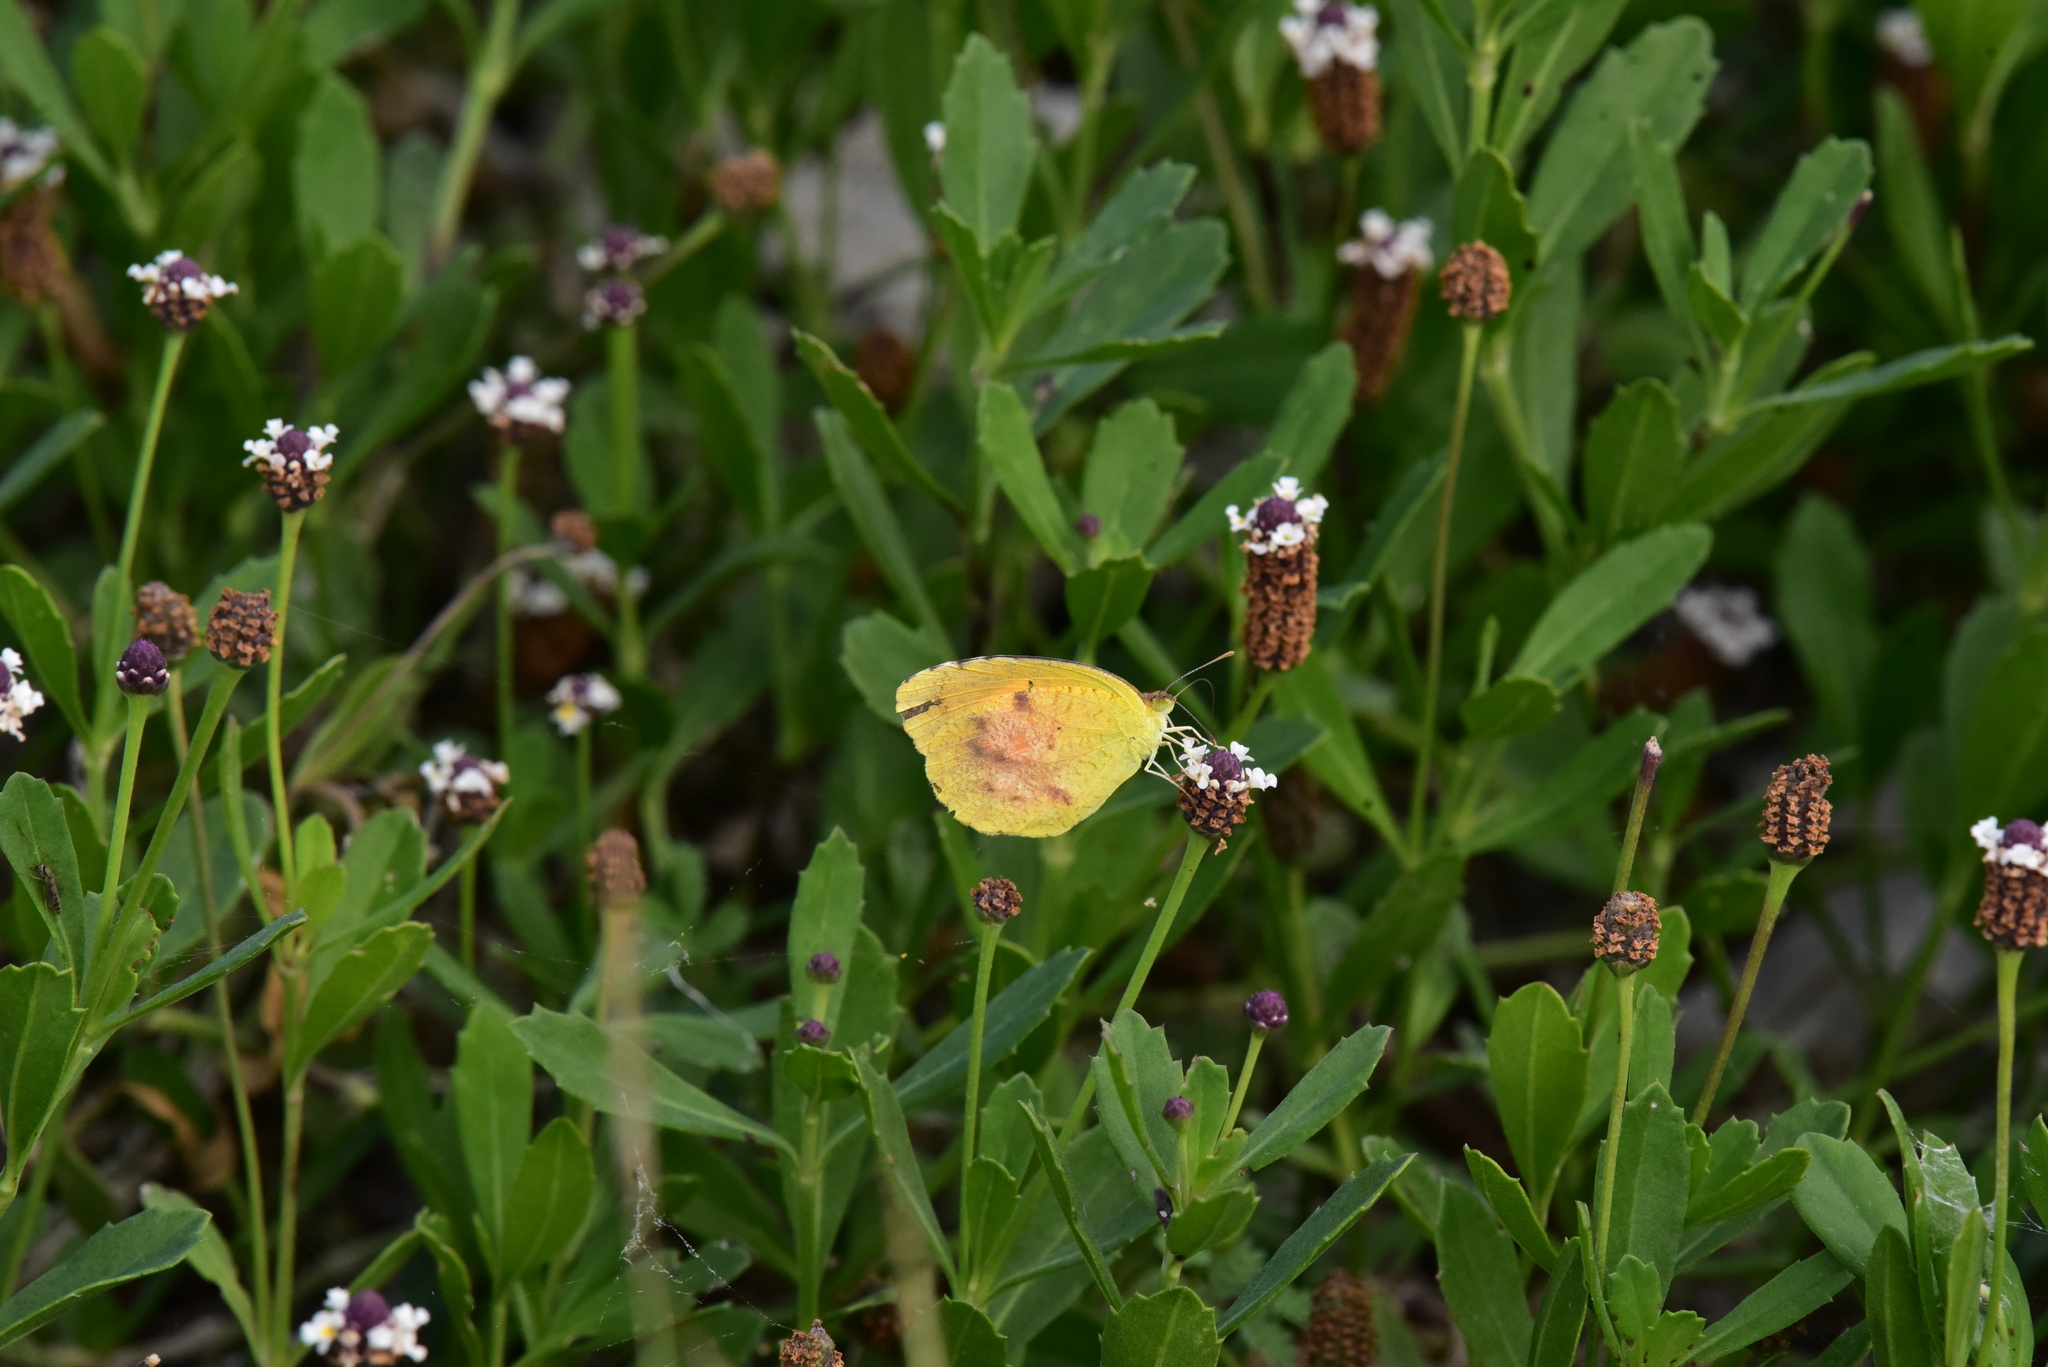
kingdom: Animalia
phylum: Arthropoda
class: Insecta
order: Lepidoptera
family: Pieridae
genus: Abaeis
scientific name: Abaeis nicippe
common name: Sleepy orange
